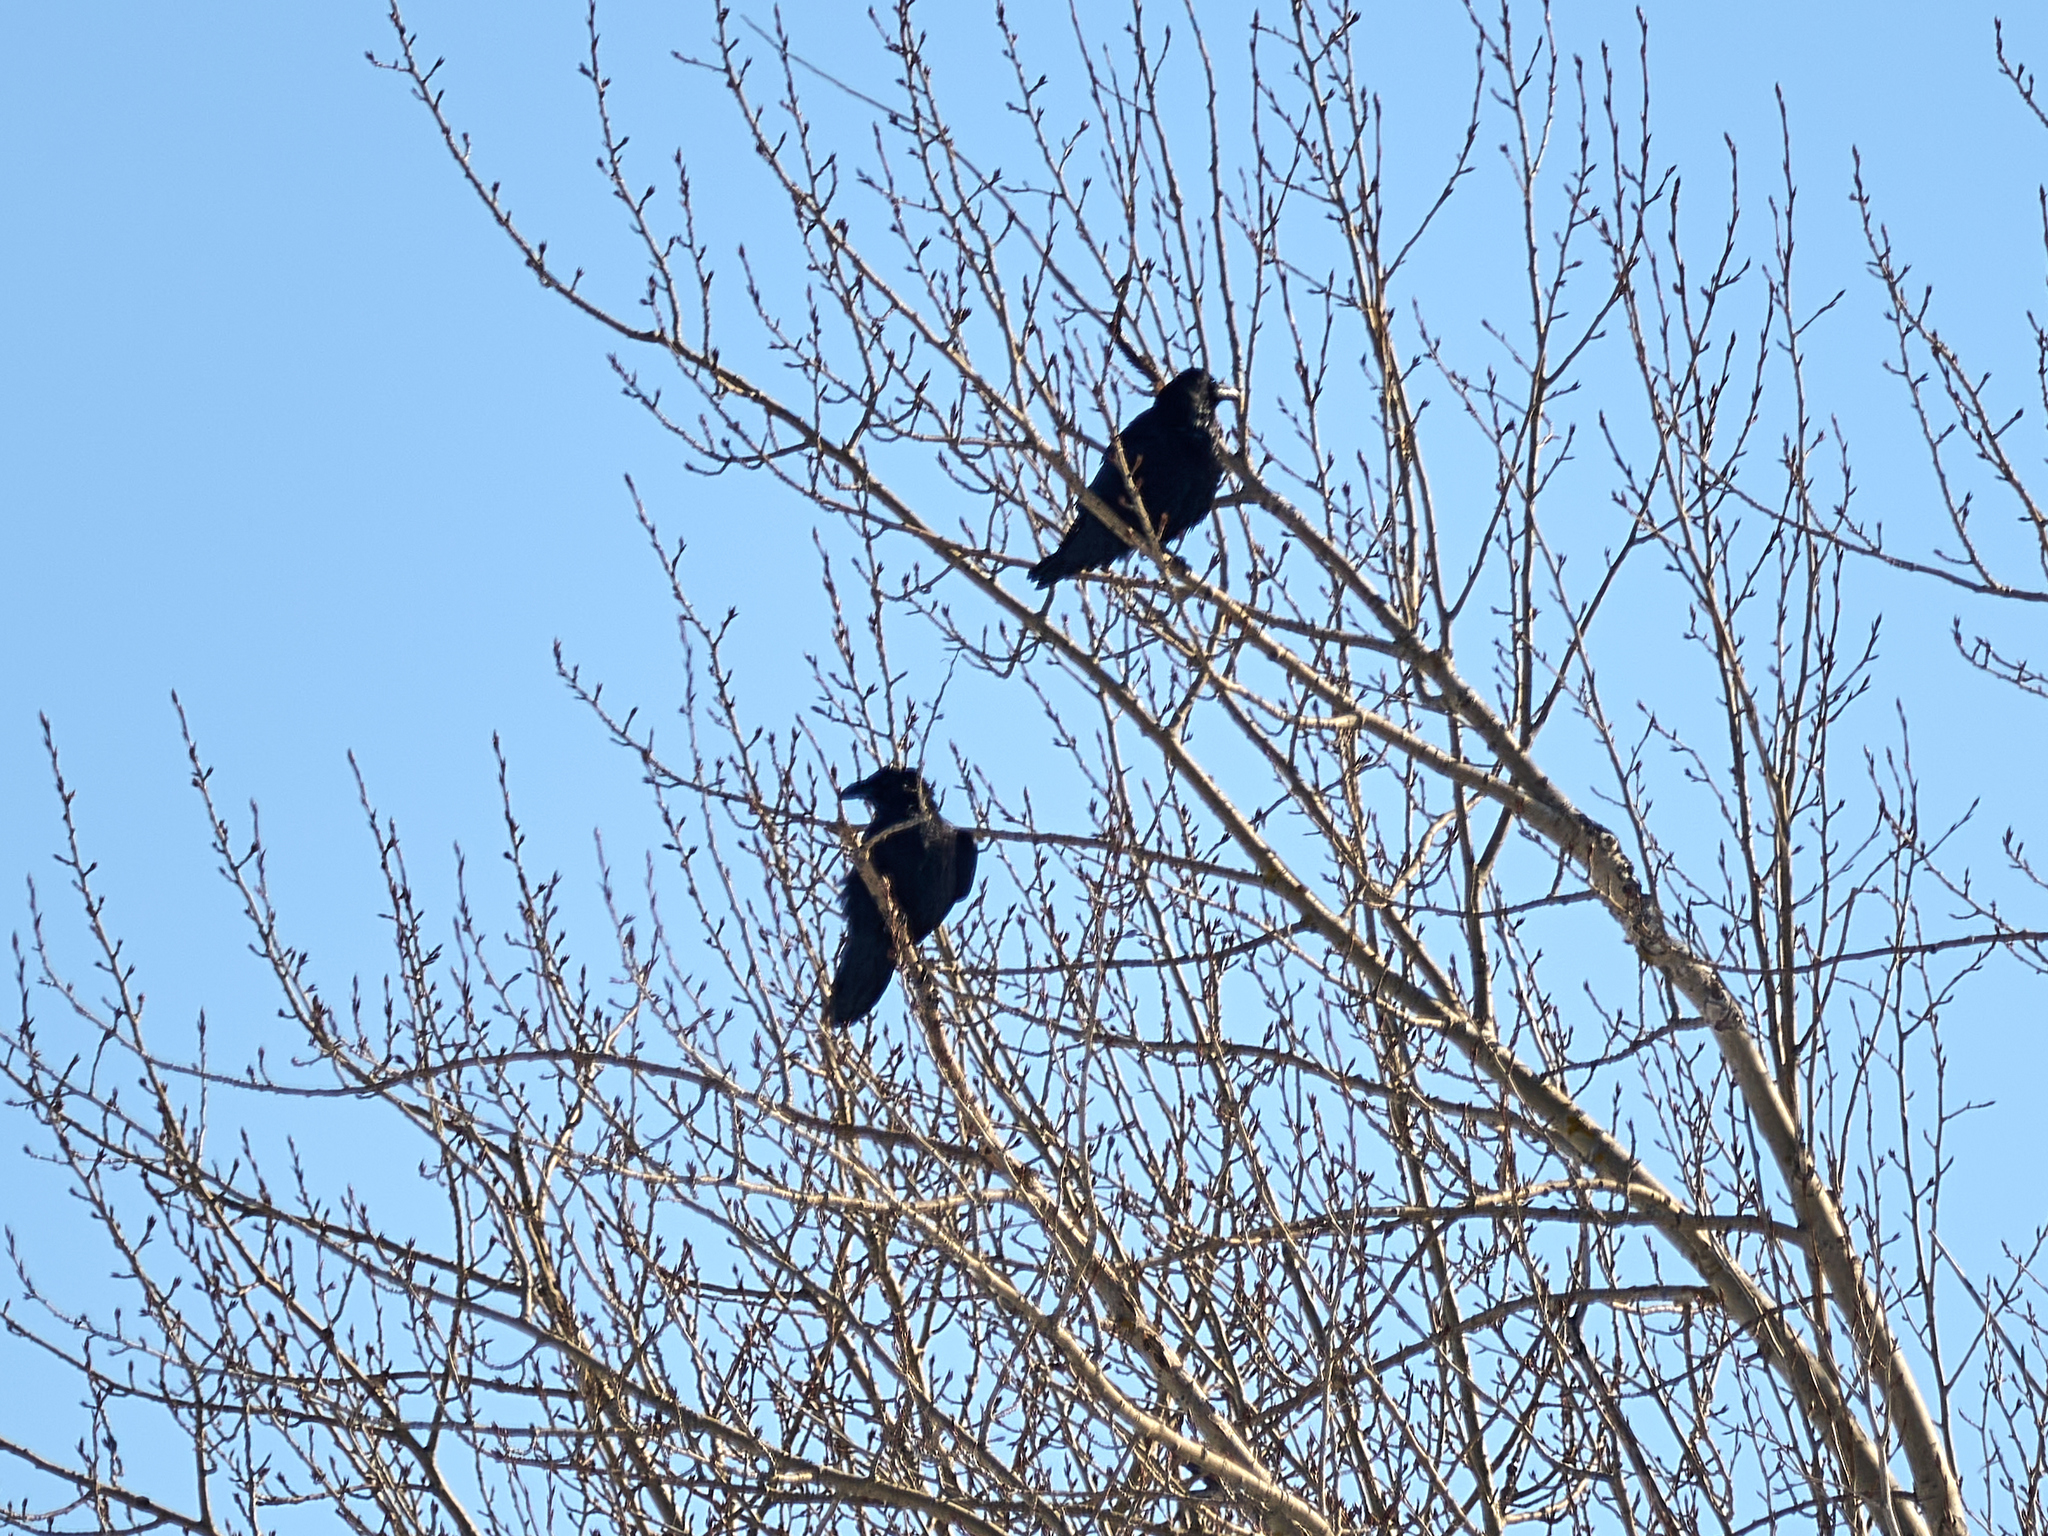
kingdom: Animalia
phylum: Chordata
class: Aves
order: Passeriformes
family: Corvidae
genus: Corvus
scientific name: Corvus corax
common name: Common raven
